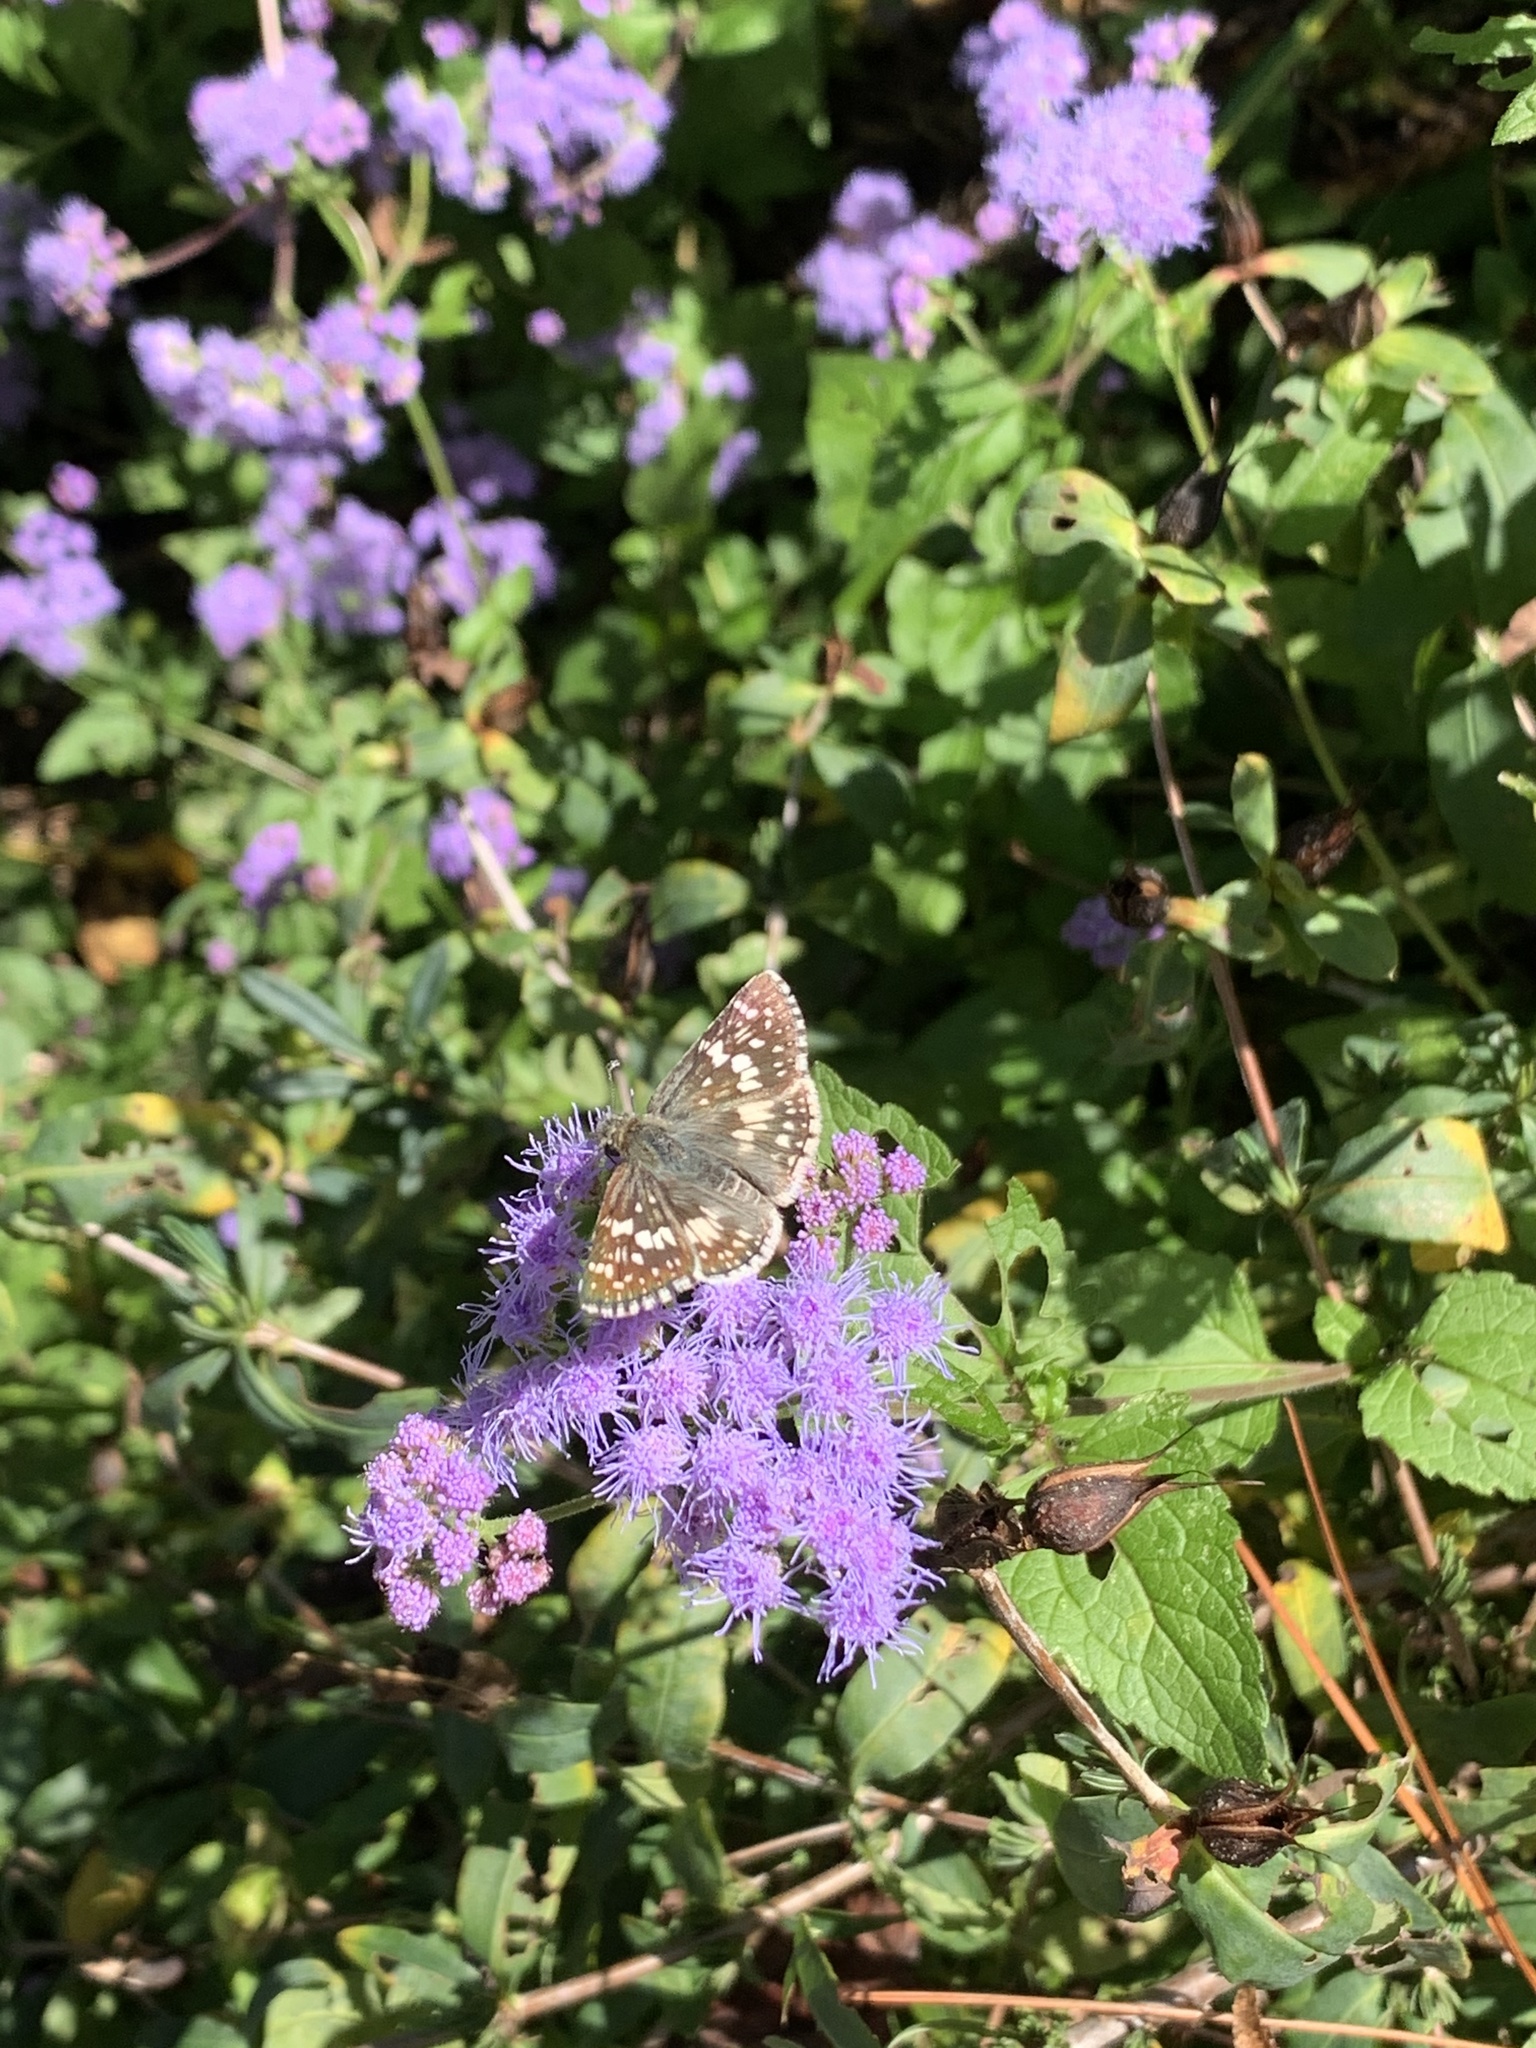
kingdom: Animalia
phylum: Arthropoda
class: Insecta
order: Lepidoptera
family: Hesperiidae
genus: Burnsius
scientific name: Burnsius communis
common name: Common checkered-skipper
